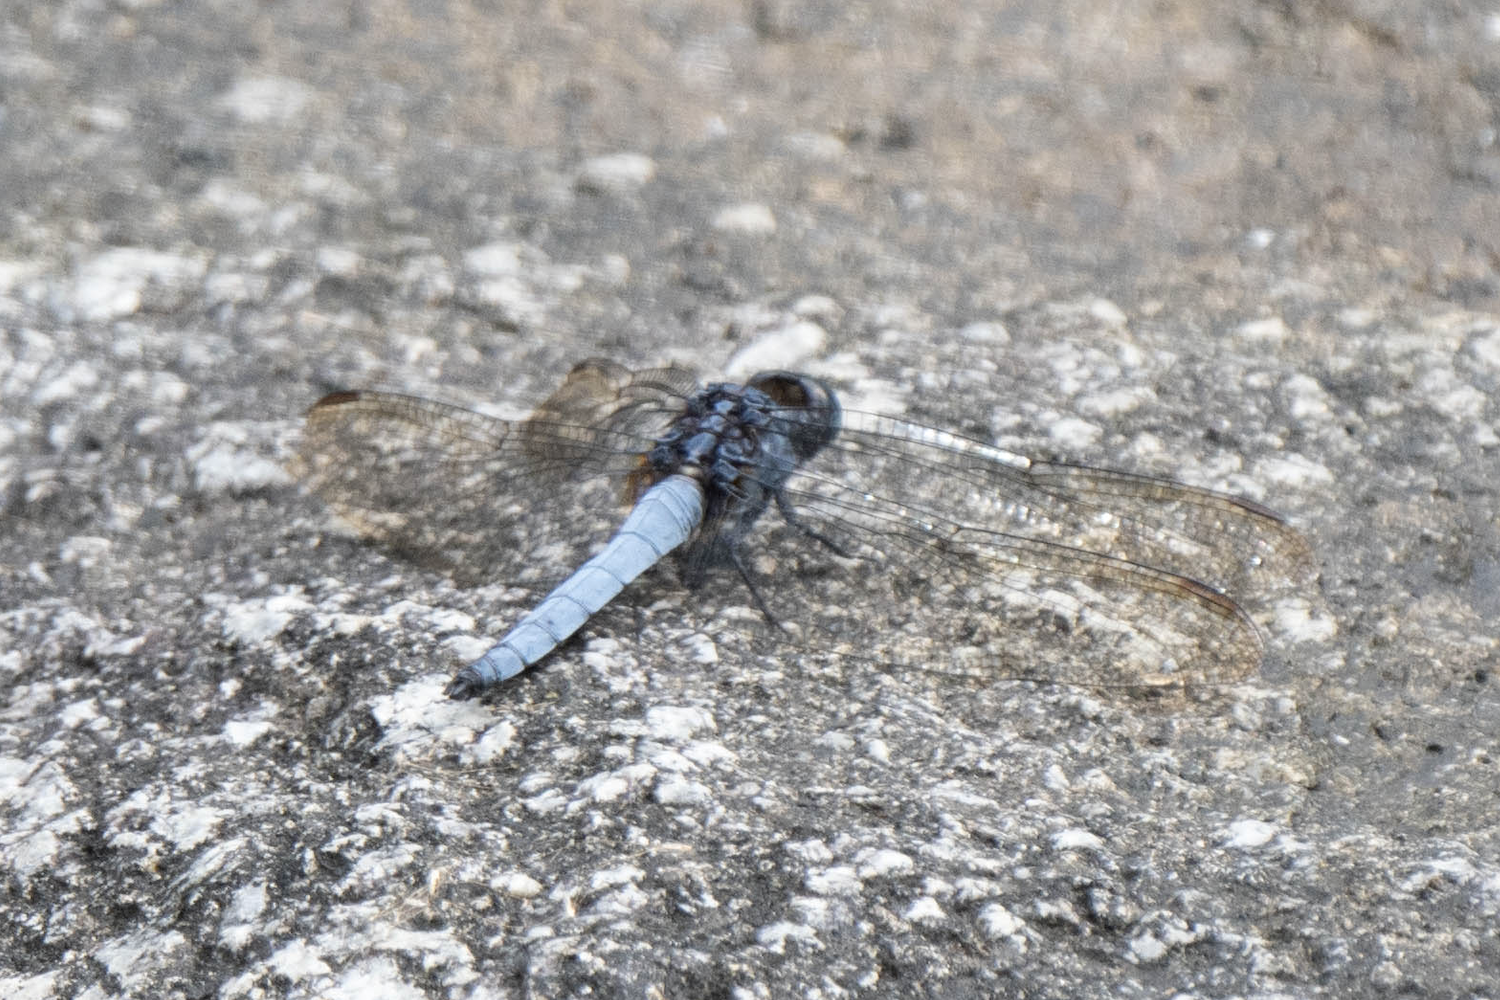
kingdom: Animalia
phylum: Arthropoda
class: Insecta
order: Odonata
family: Libellulidae
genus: Orthetrum
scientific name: Orthetrum glaucum
